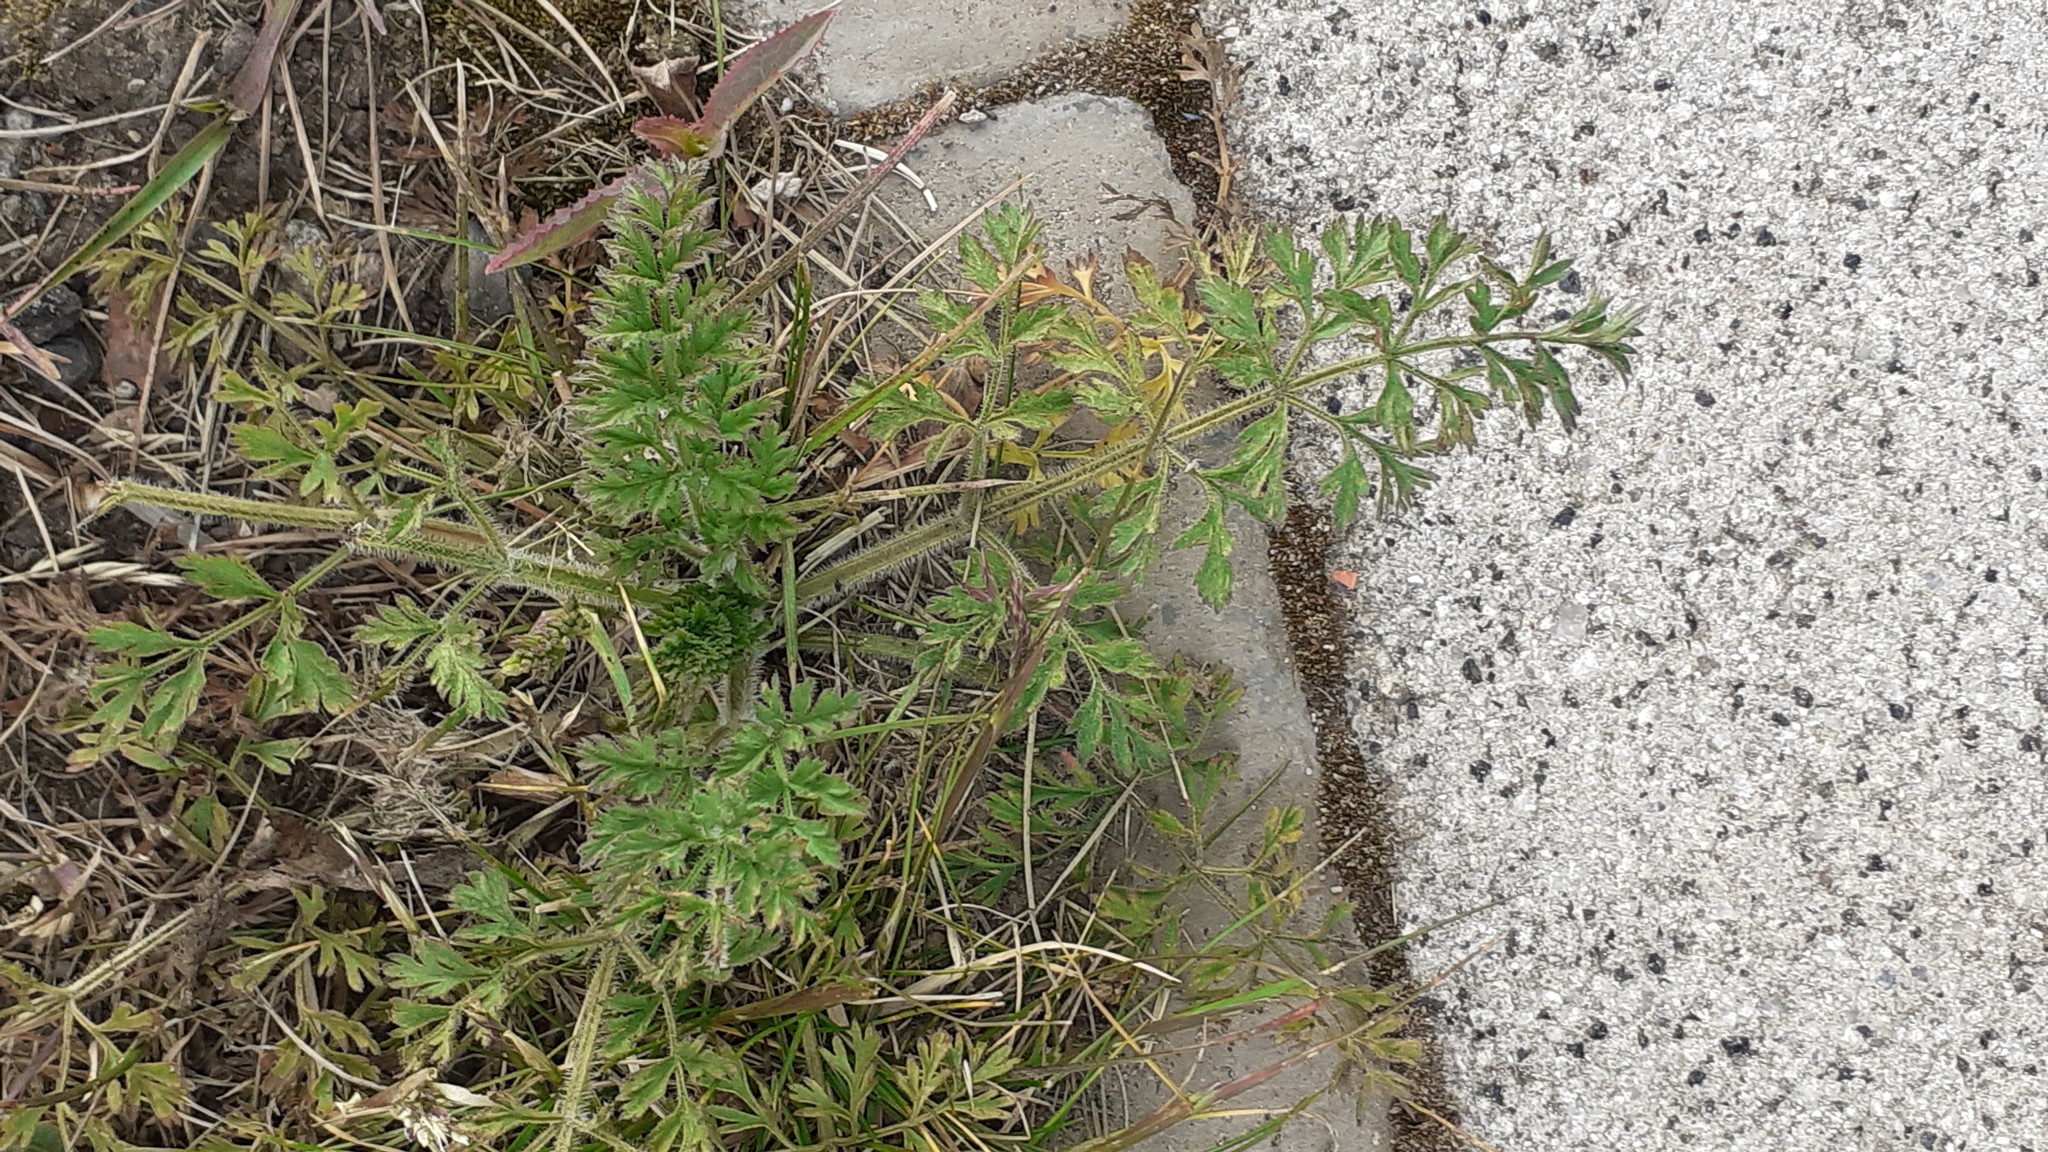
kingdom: Plantae
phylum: Tracheophyta
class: Magnoliopsida
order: Apiales
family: Apiaceae
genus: Daucus
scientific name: Daucus carota
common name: Wild carrot
